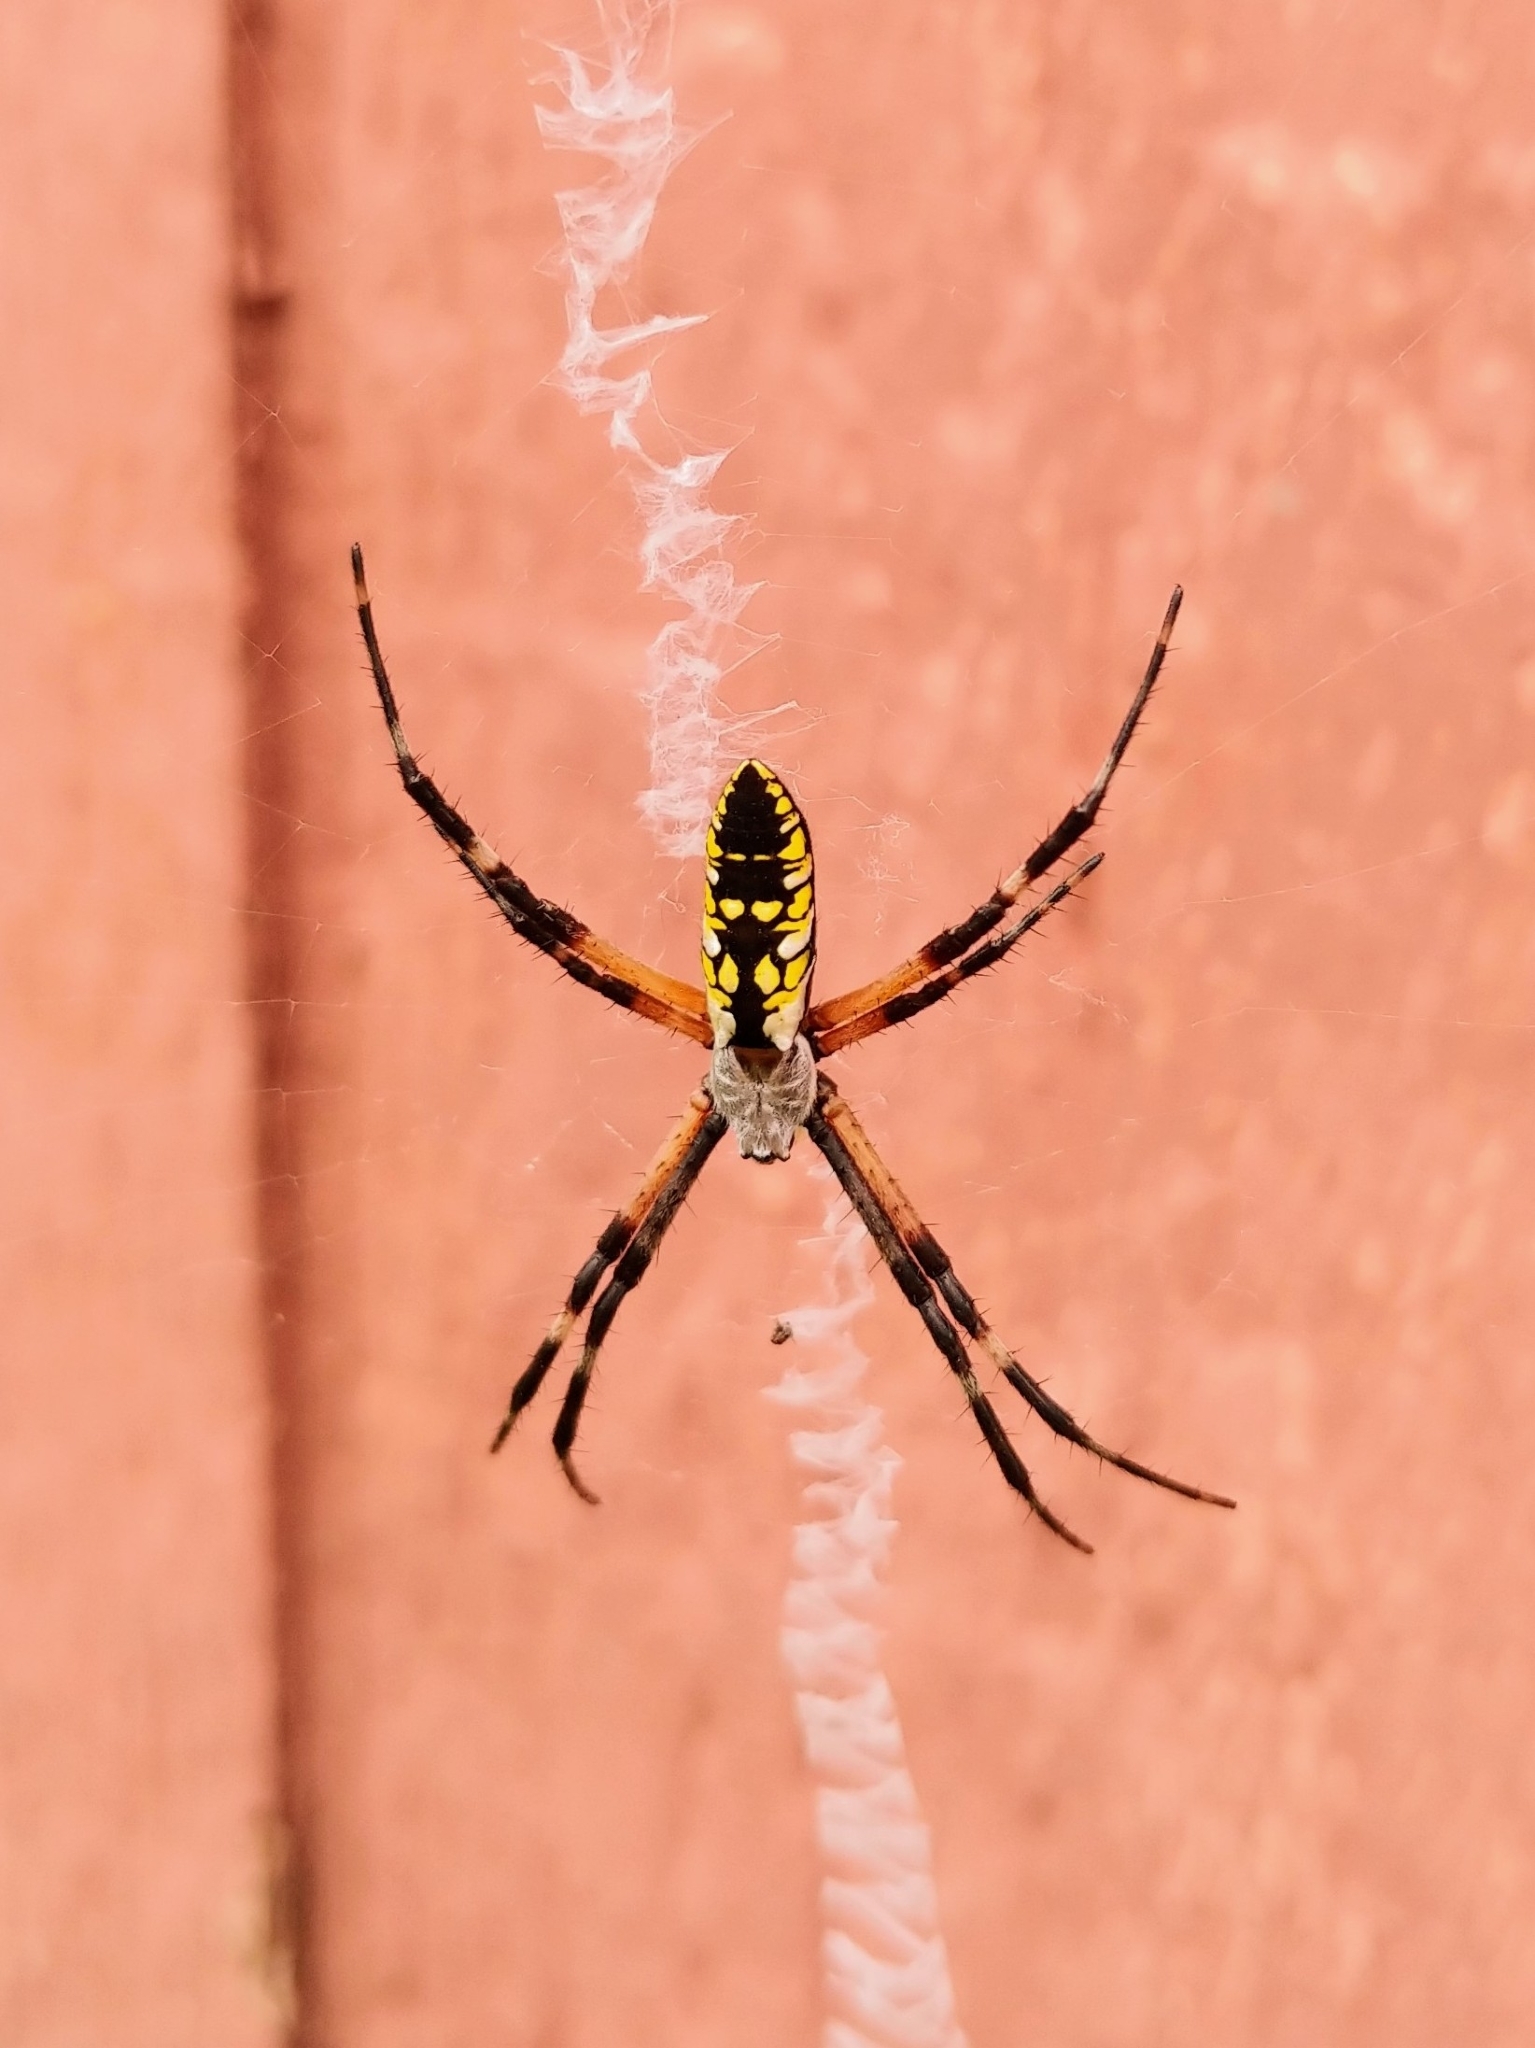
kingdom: Animalia
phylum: Arthropoda
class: Arachnida
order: Araneae
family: Araneidae
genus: Argiope
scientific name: Argiope aurantia
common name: Orb weavers
